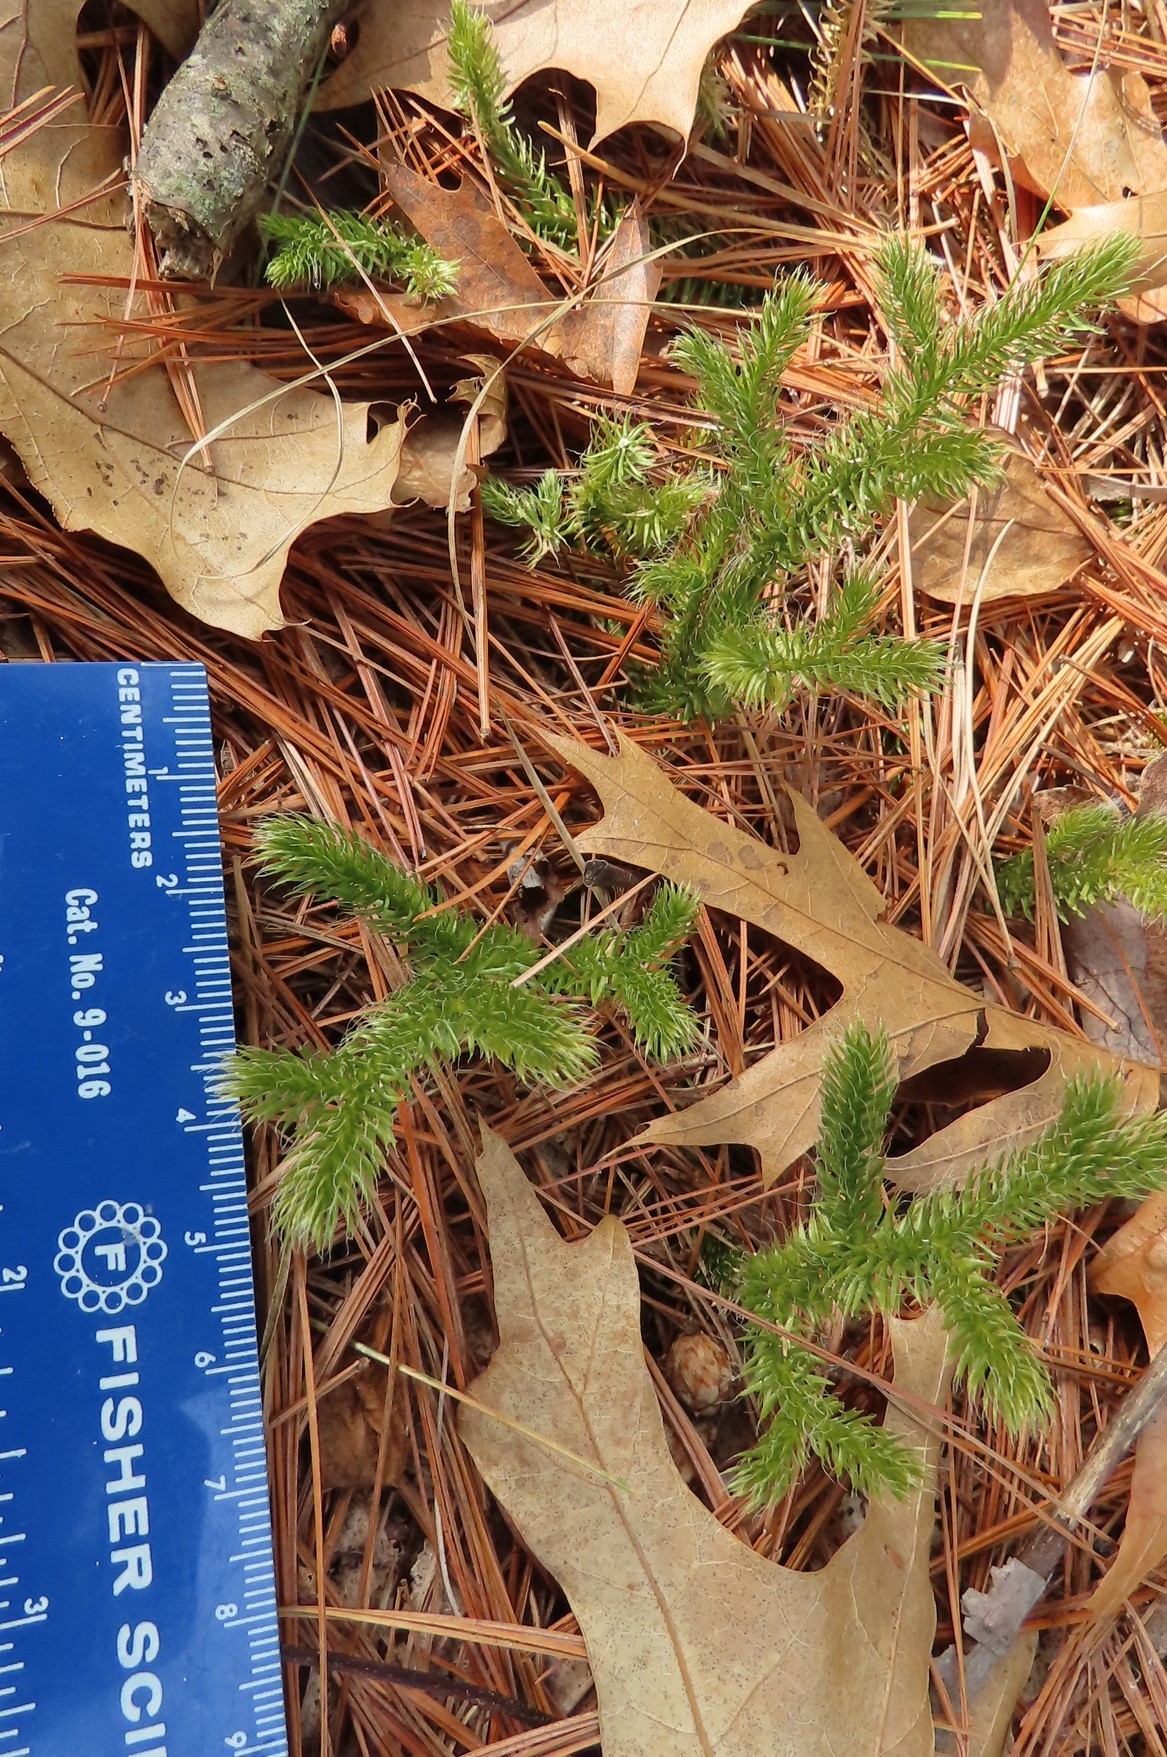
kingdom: Plantae
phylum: Tracheophyta
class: Lycopodiopsida
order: Lycopodiales
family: Lycopodiaceae
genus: Lycopodium
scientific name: Lycopodium clavatum
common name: Stag's-horn clubmoss
